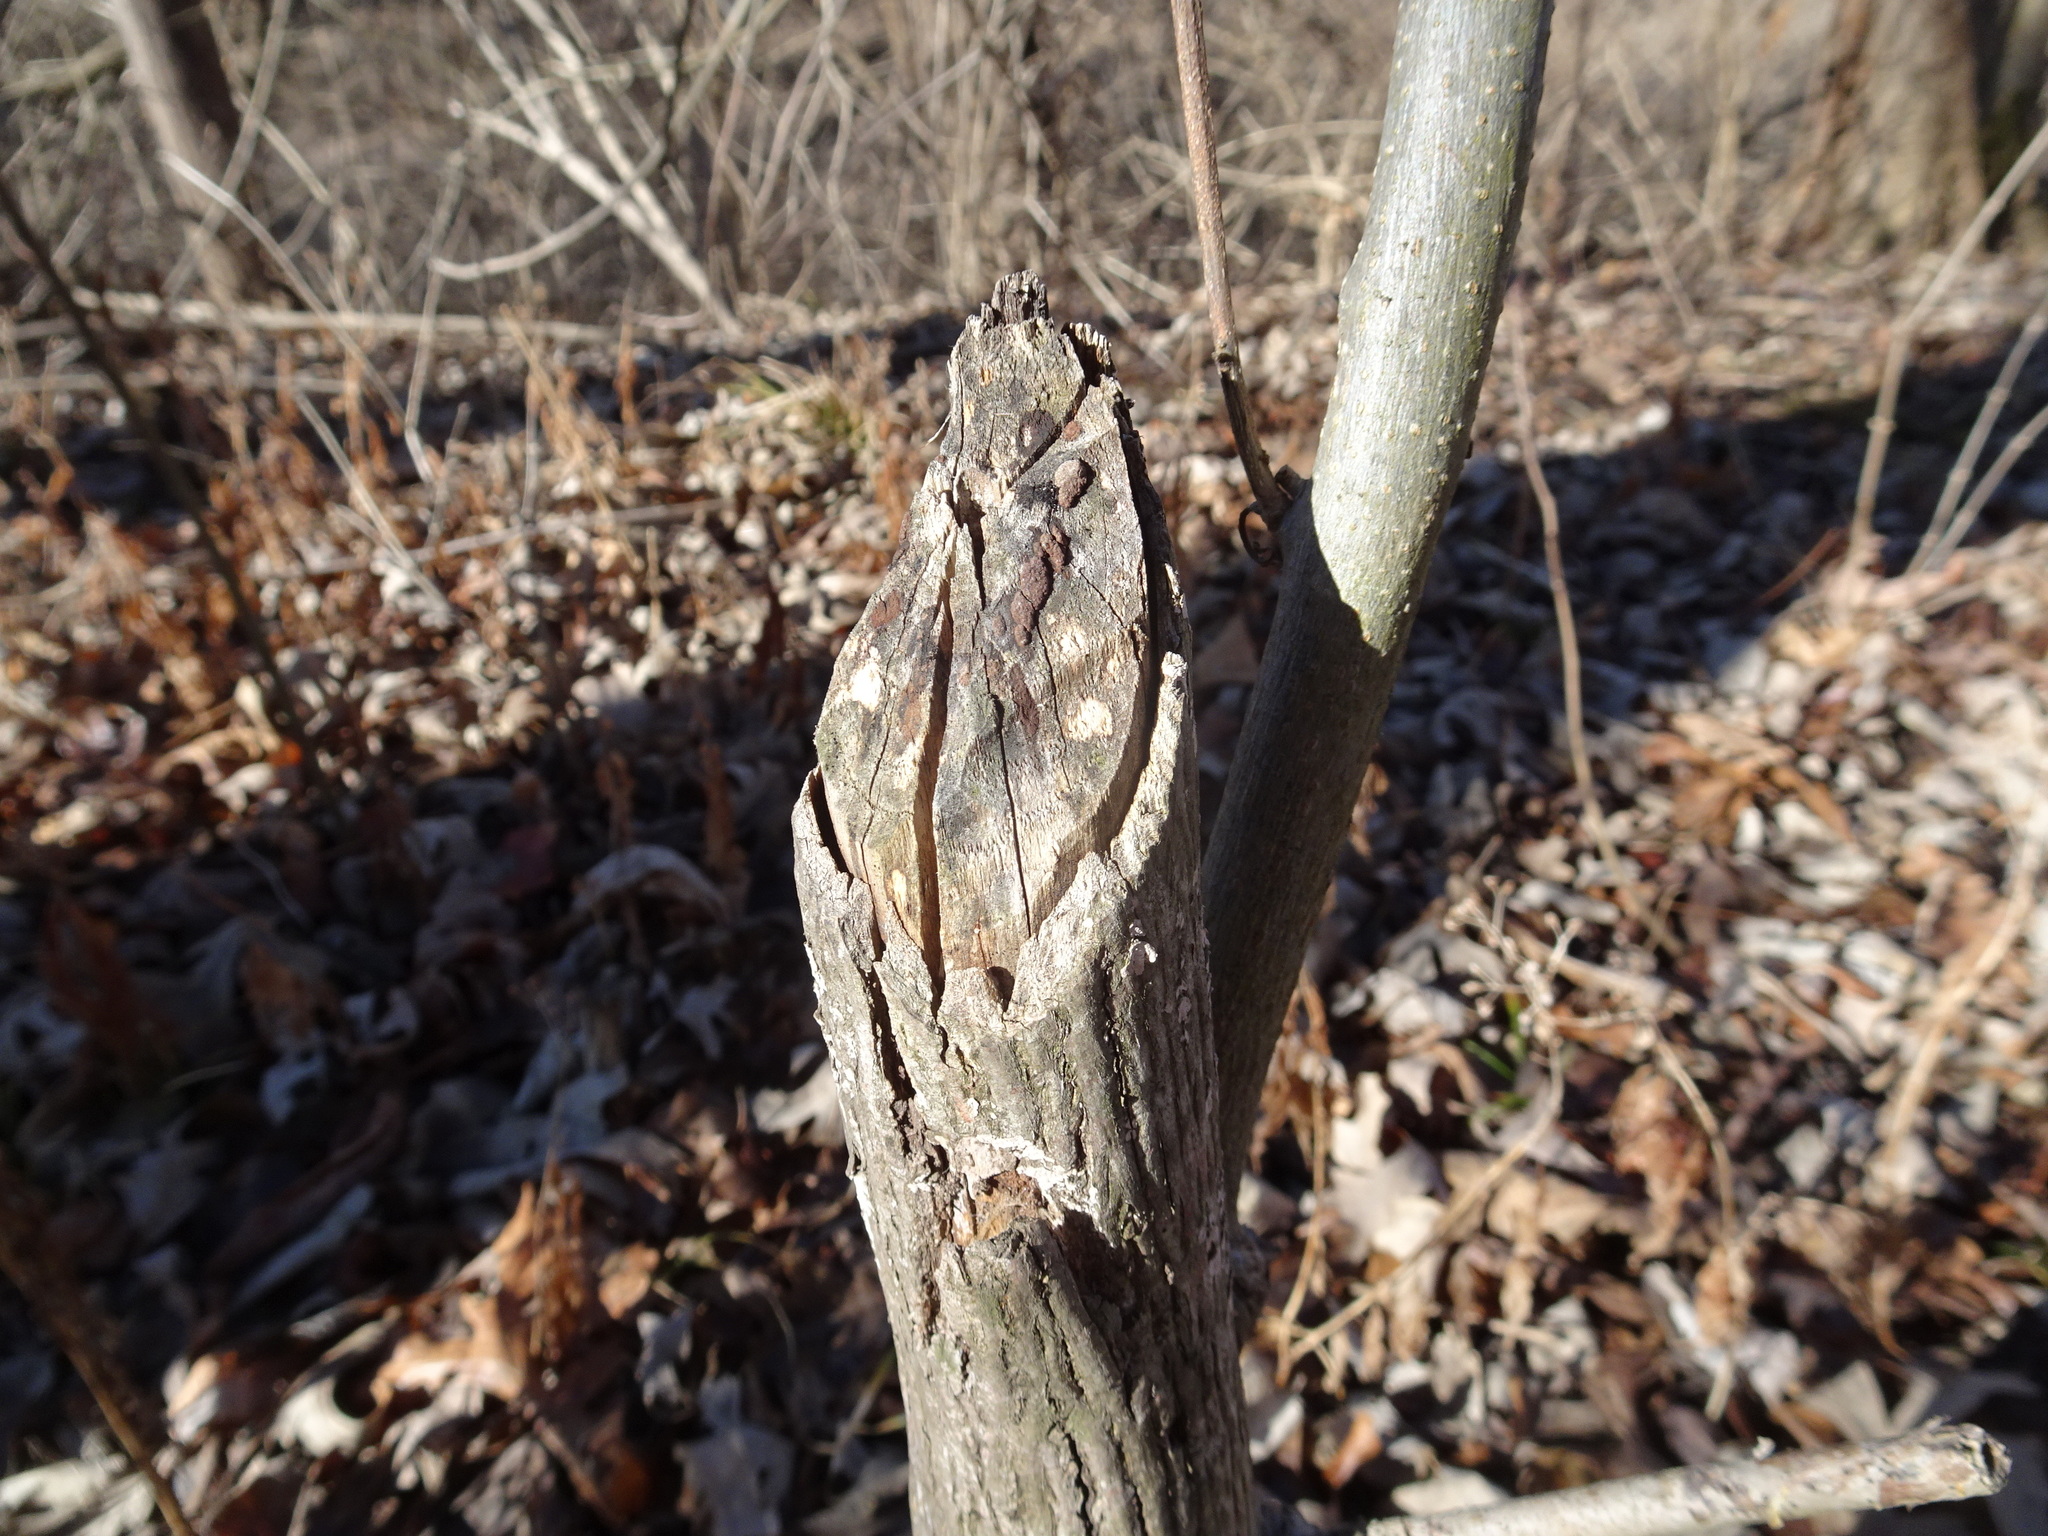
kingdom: Animalia
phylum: Chordata
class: Mammalia
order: Rodentia
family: Castoridae
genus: Castor
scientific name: Castor canadensis
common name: American beaver
